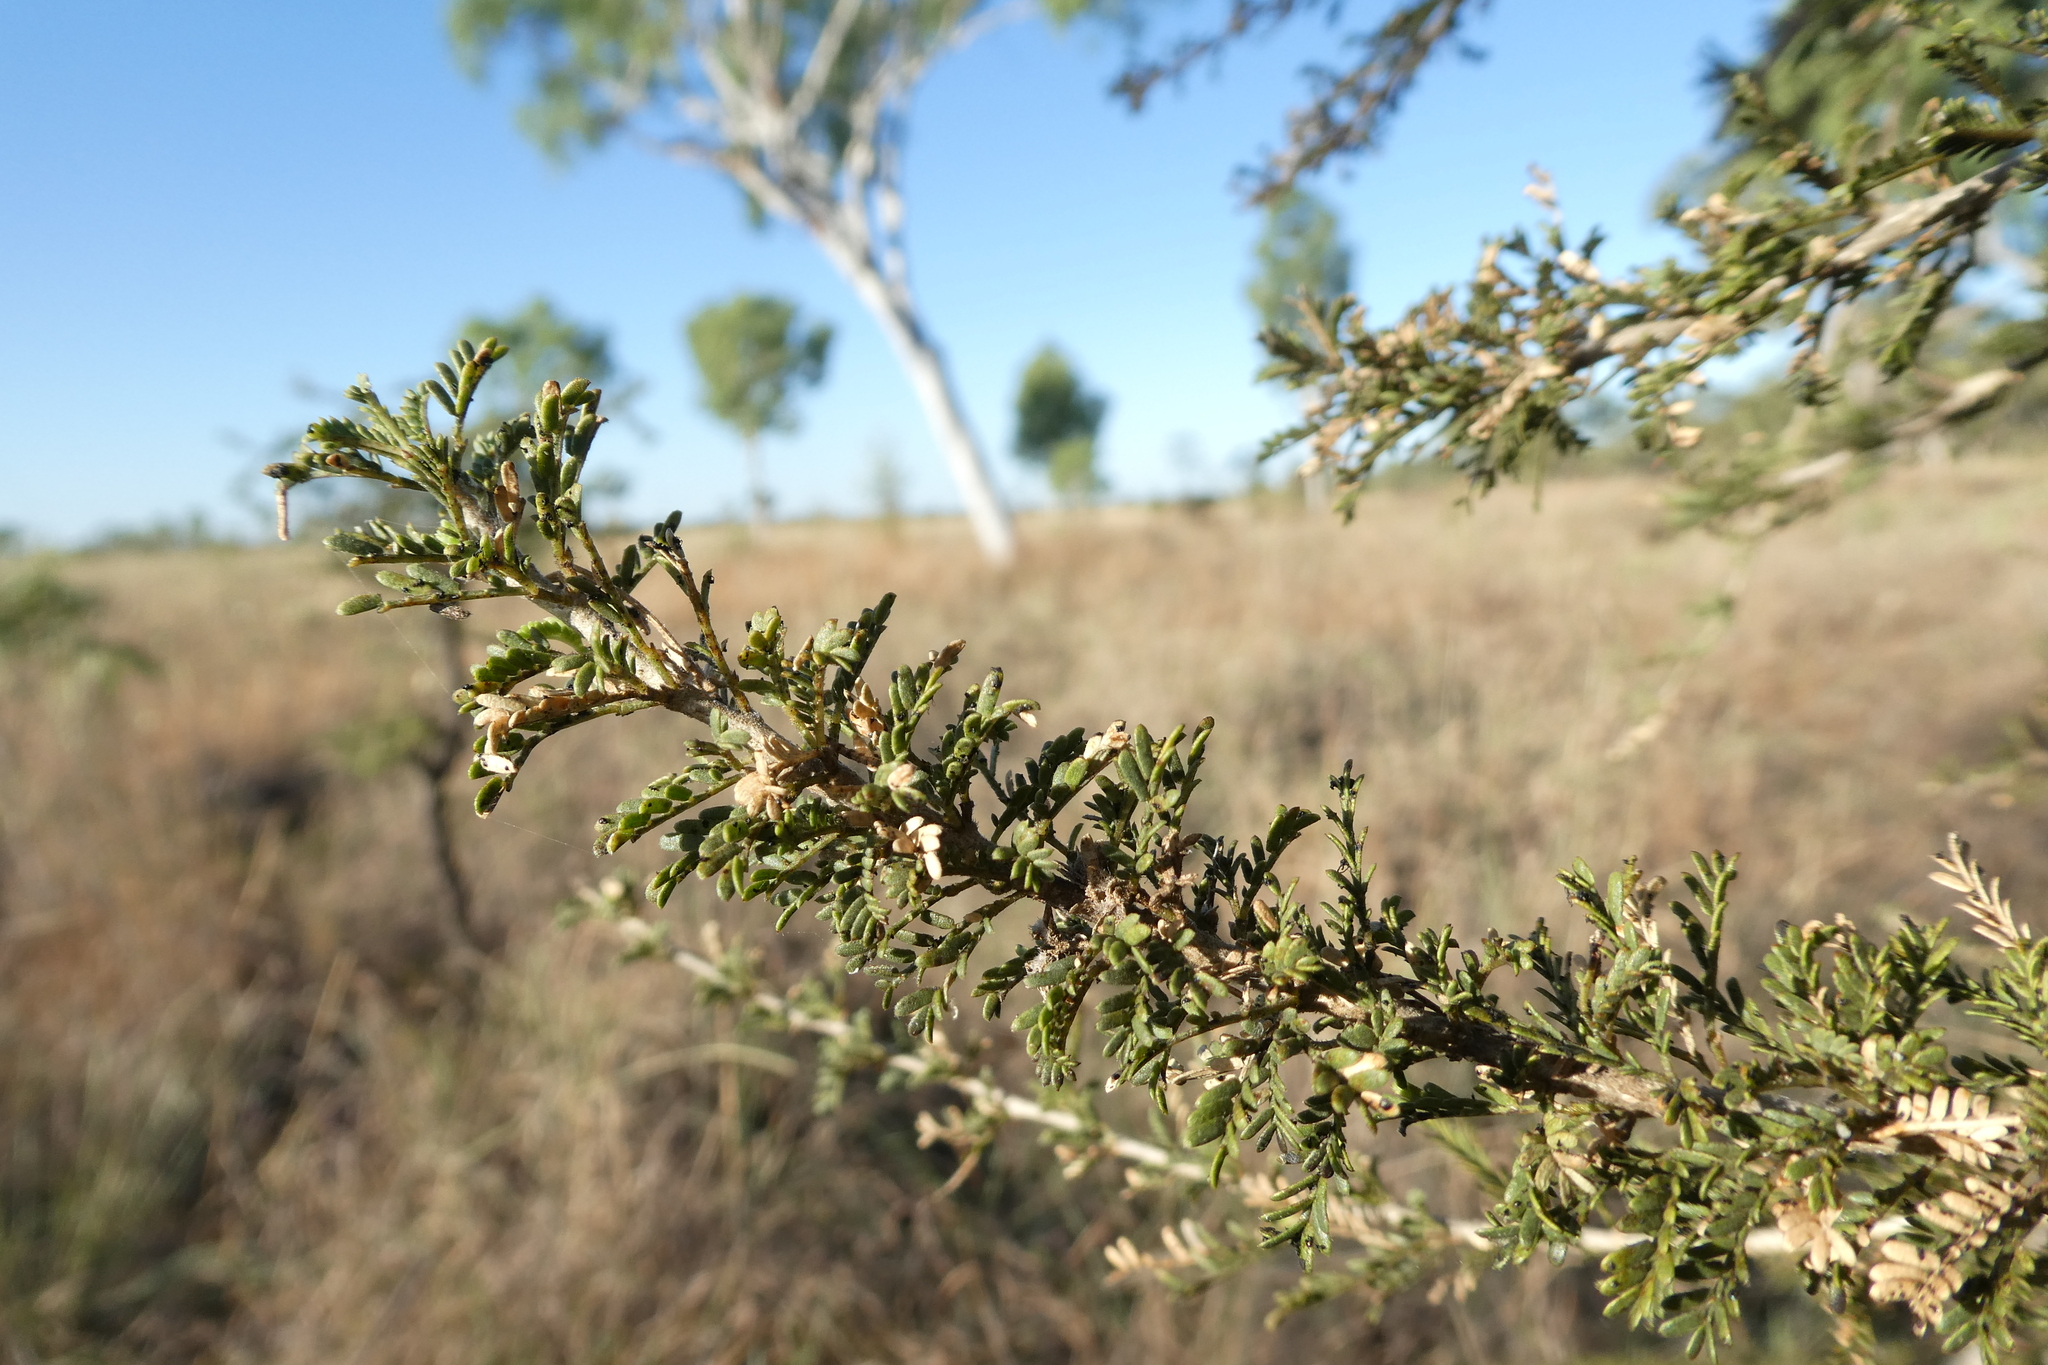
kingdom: Plantae
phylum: Tracheophyta
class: Magnoliopsida
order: Fabales
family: Fabaceae
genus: Vachellia
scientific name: Vachellia suberosa
